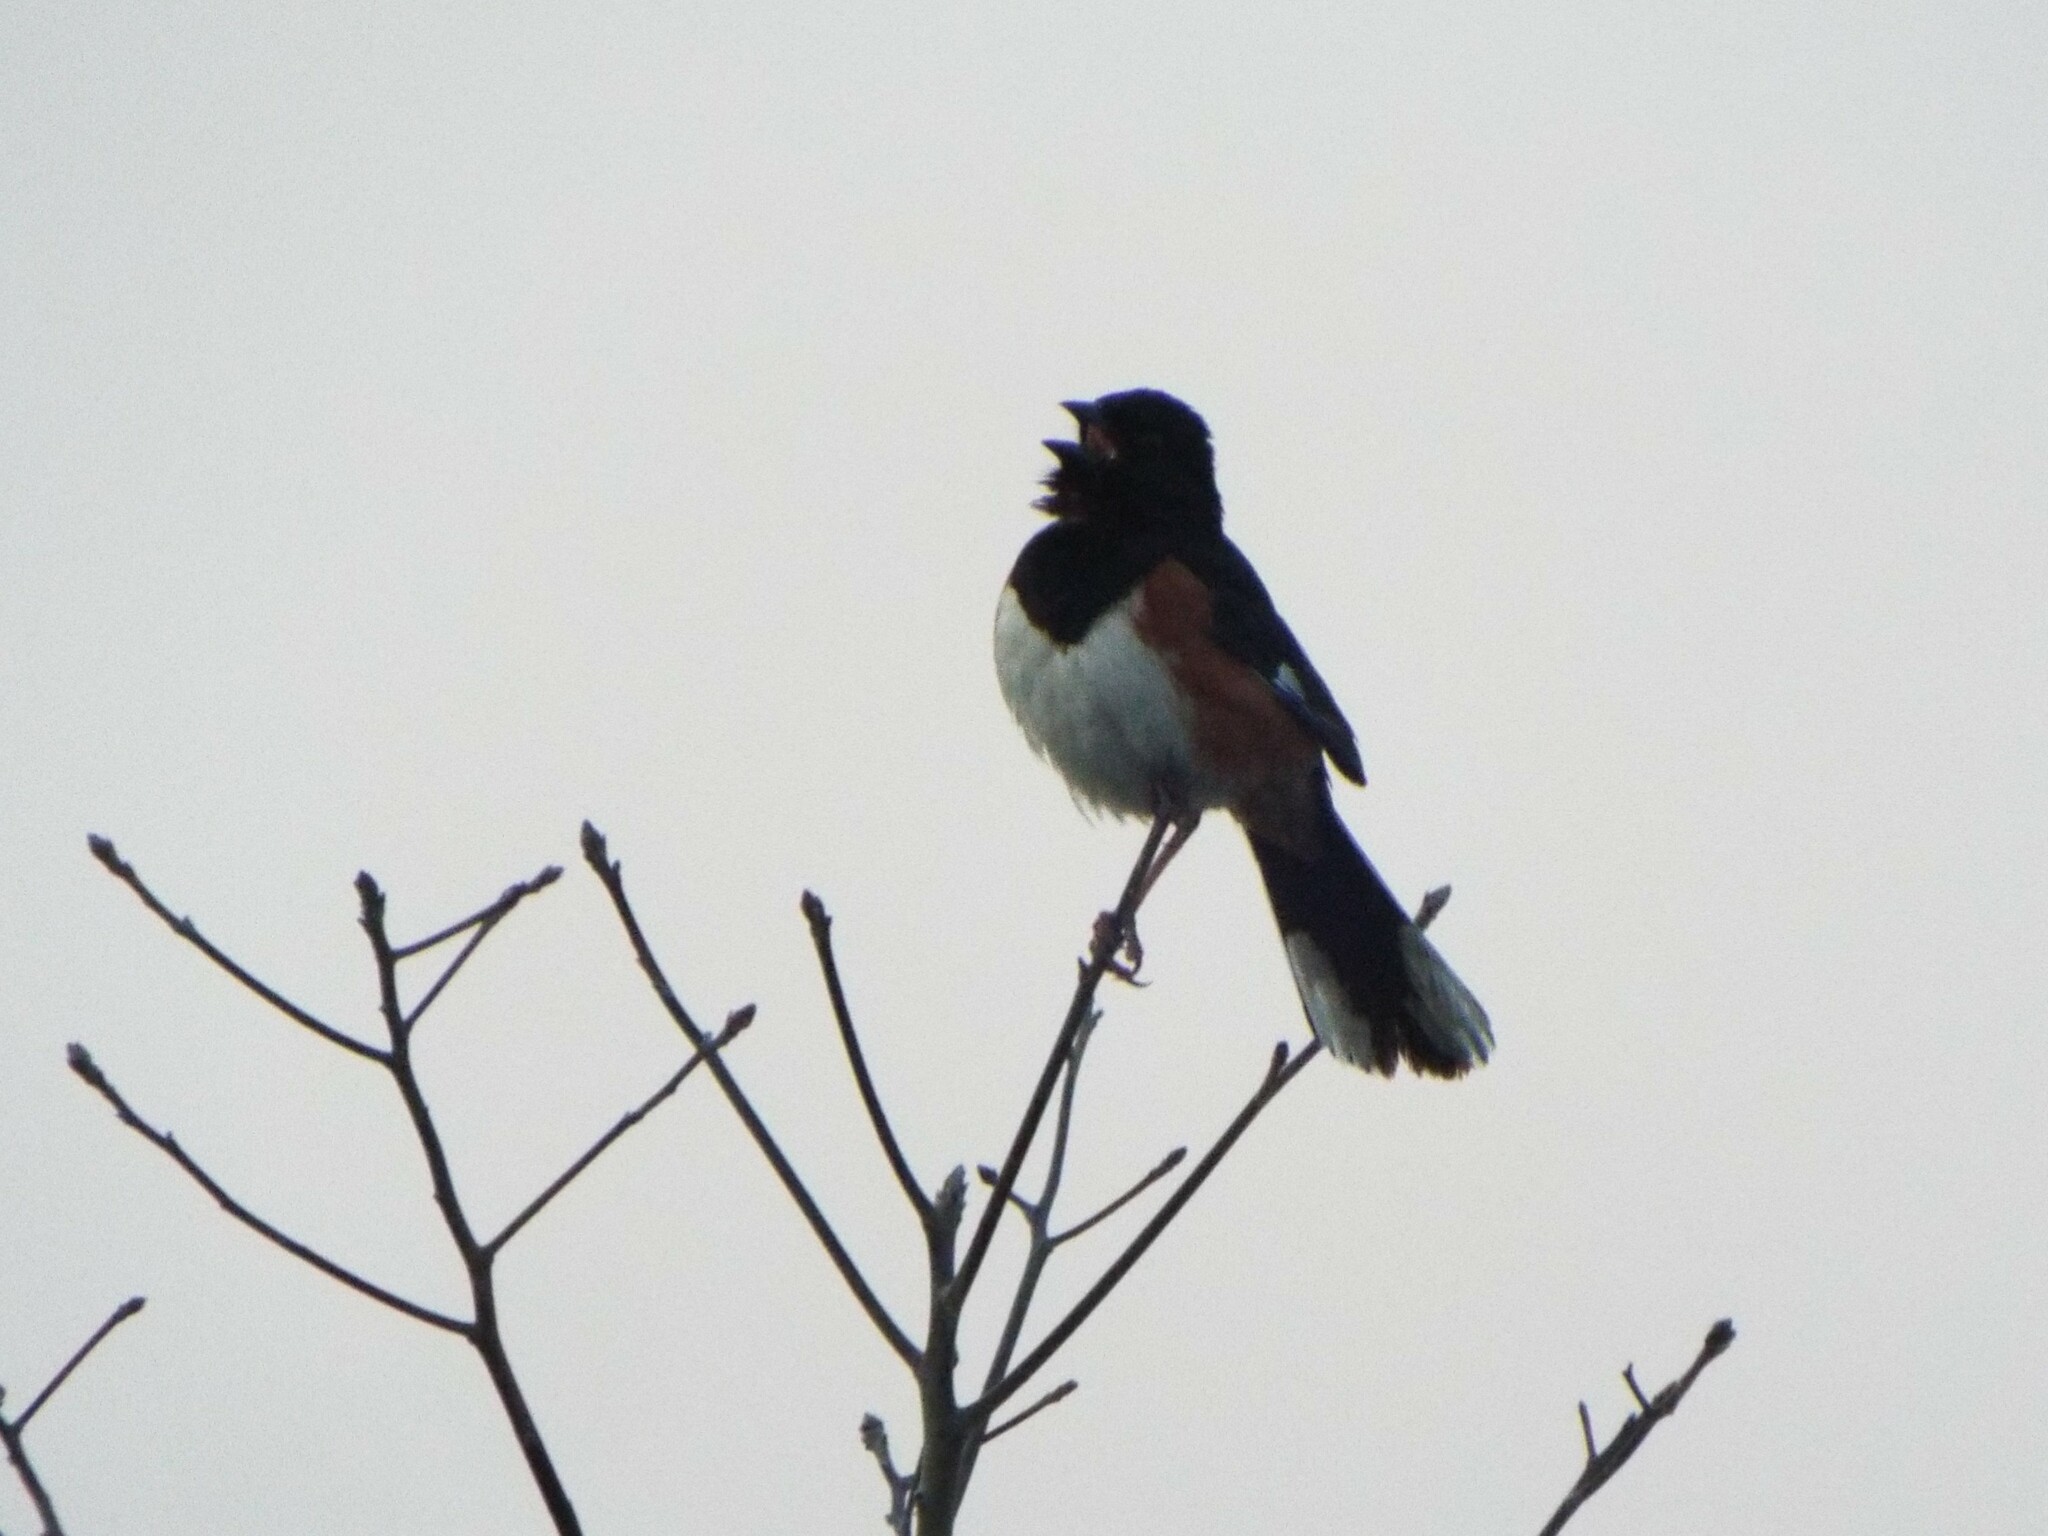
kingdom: Animalia
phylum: Chordata
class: Aves
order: Passeriformes
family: Passerellidae
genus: Pipilo
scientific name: Pipilo erythrophthalmus
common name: Eastern towhee
